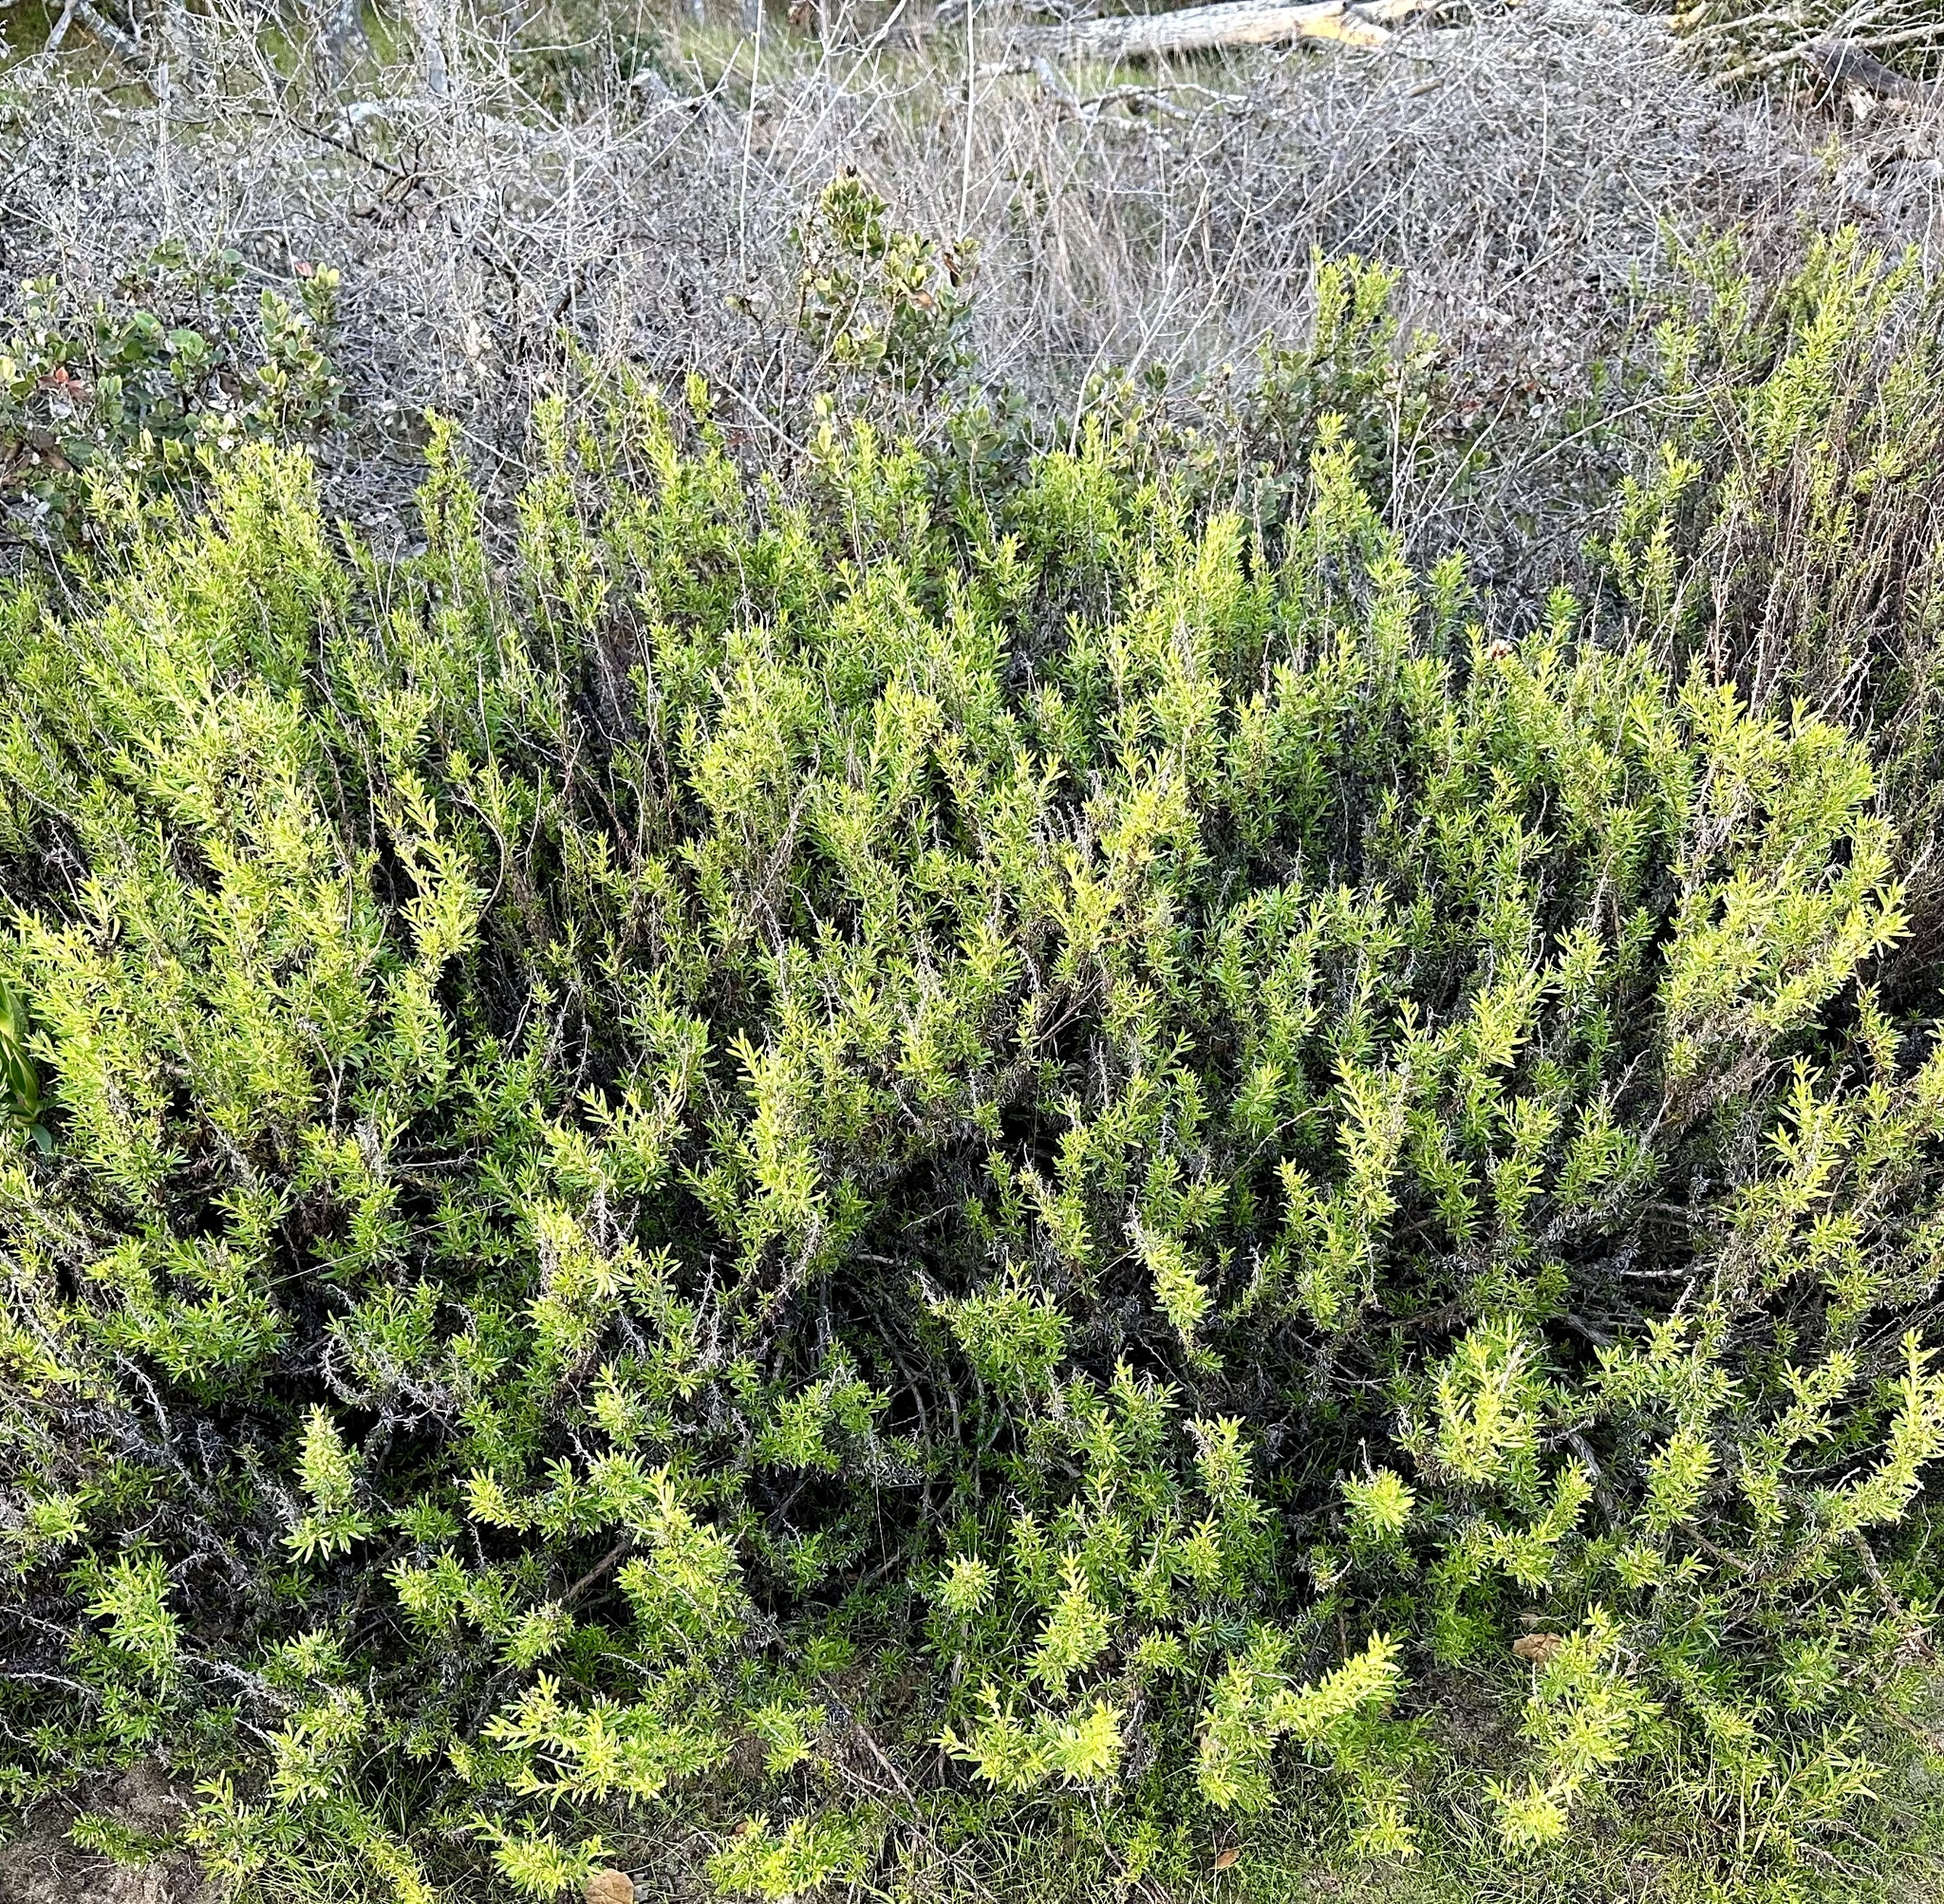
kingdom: Plantae
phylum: Tracheophyta
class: Magnoliopsida
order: Caryophyllales
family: Polygonaceae
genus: Eriogonum
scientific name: Eriogonum fasciculatum
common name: California wild buckwheat
